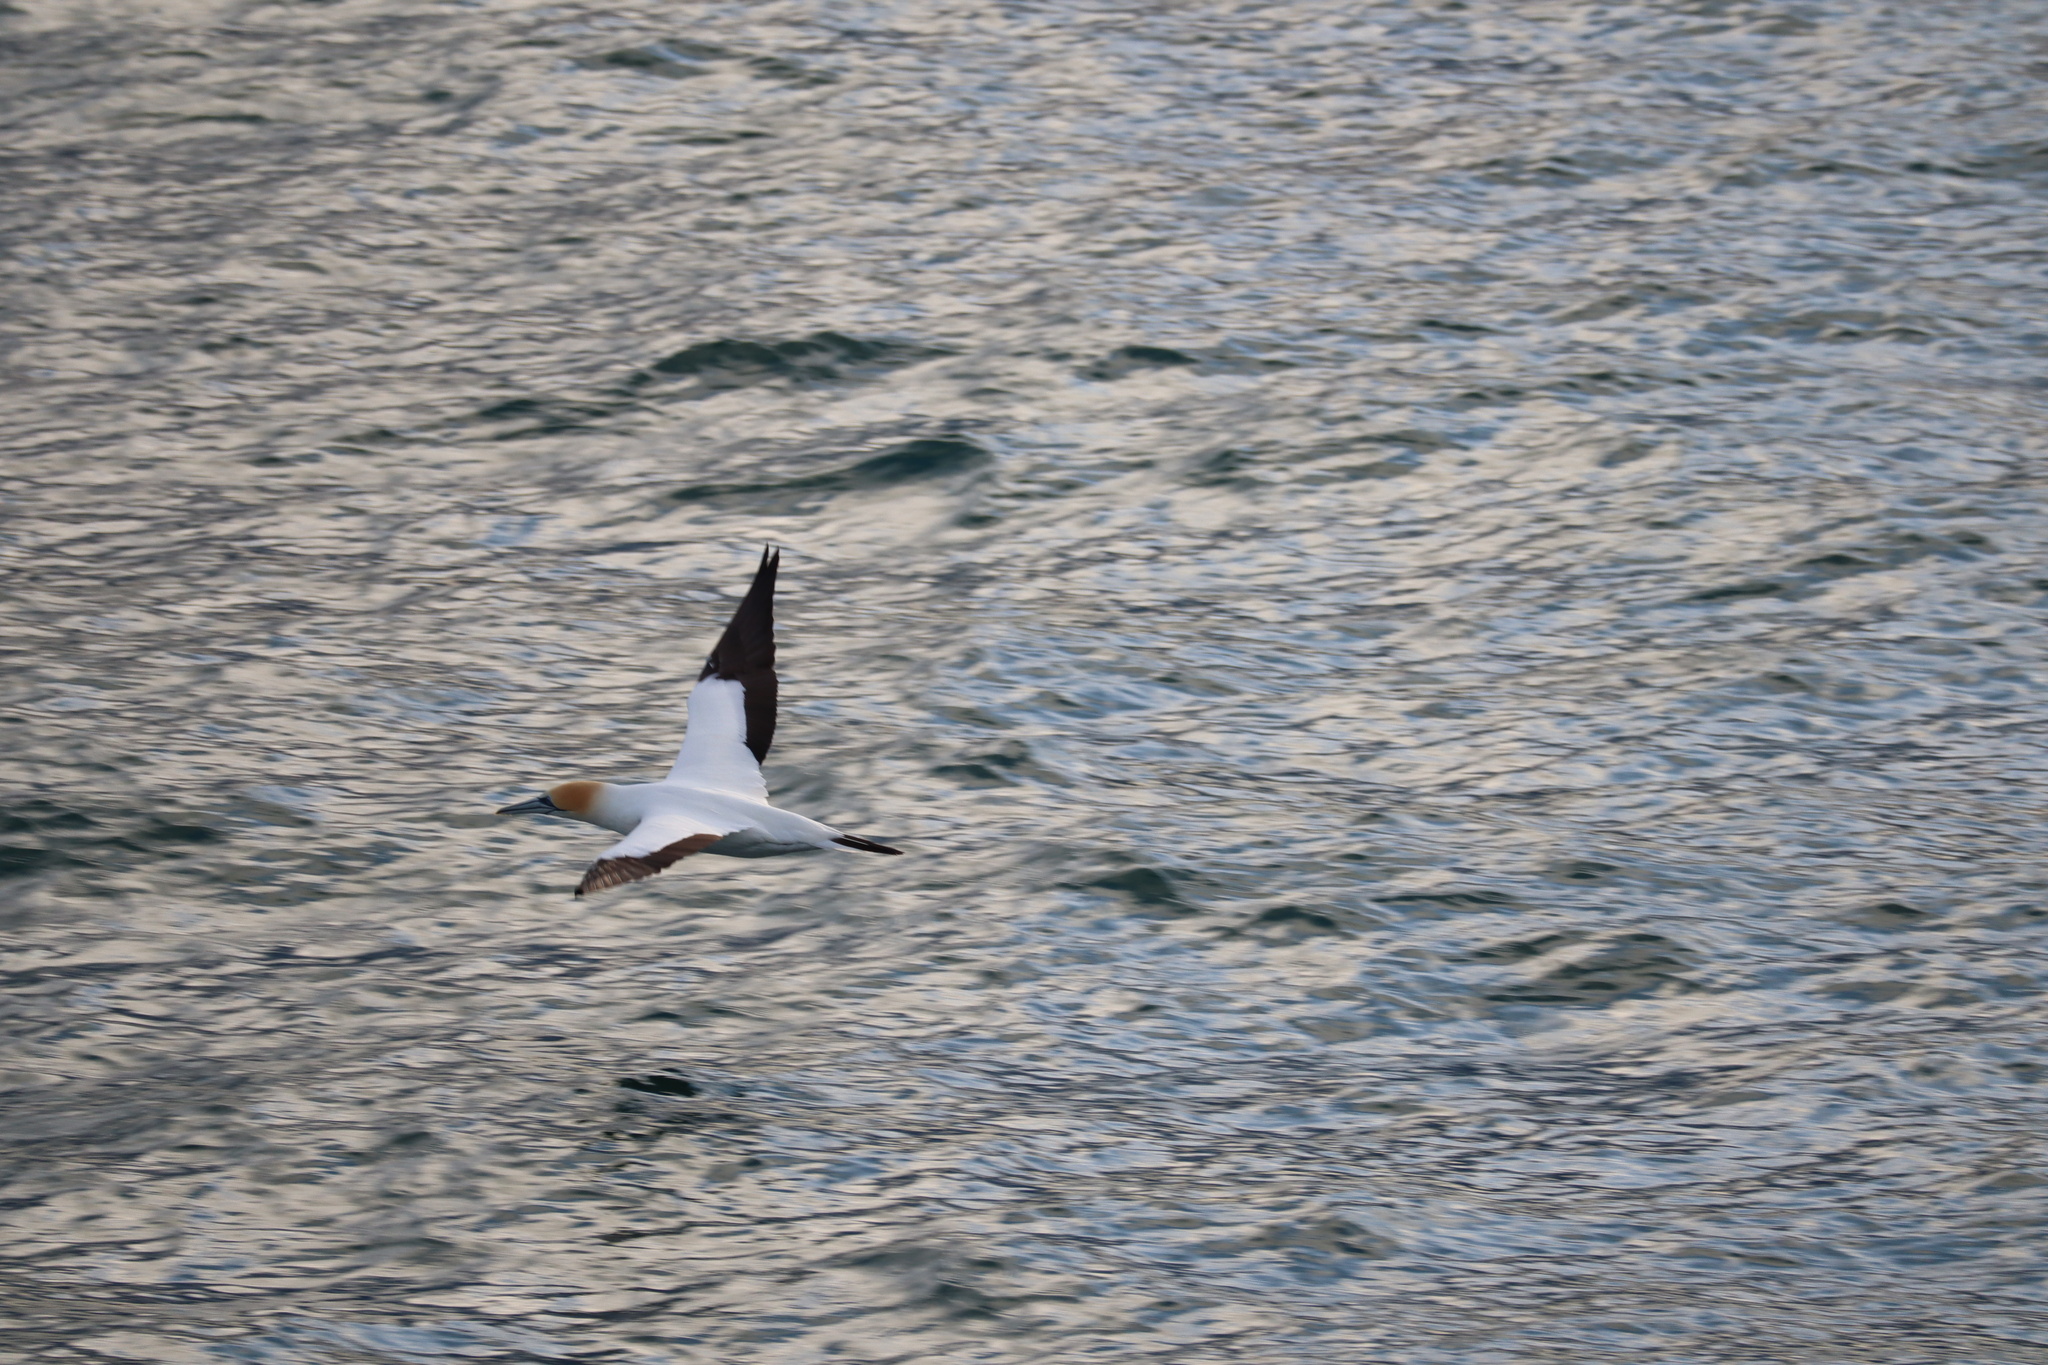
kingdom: Animalia
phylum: Chordata
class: Aves
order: Suliformes
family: Sulidae
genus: Morus
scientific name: Morus serrator
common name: Australasian gannet
